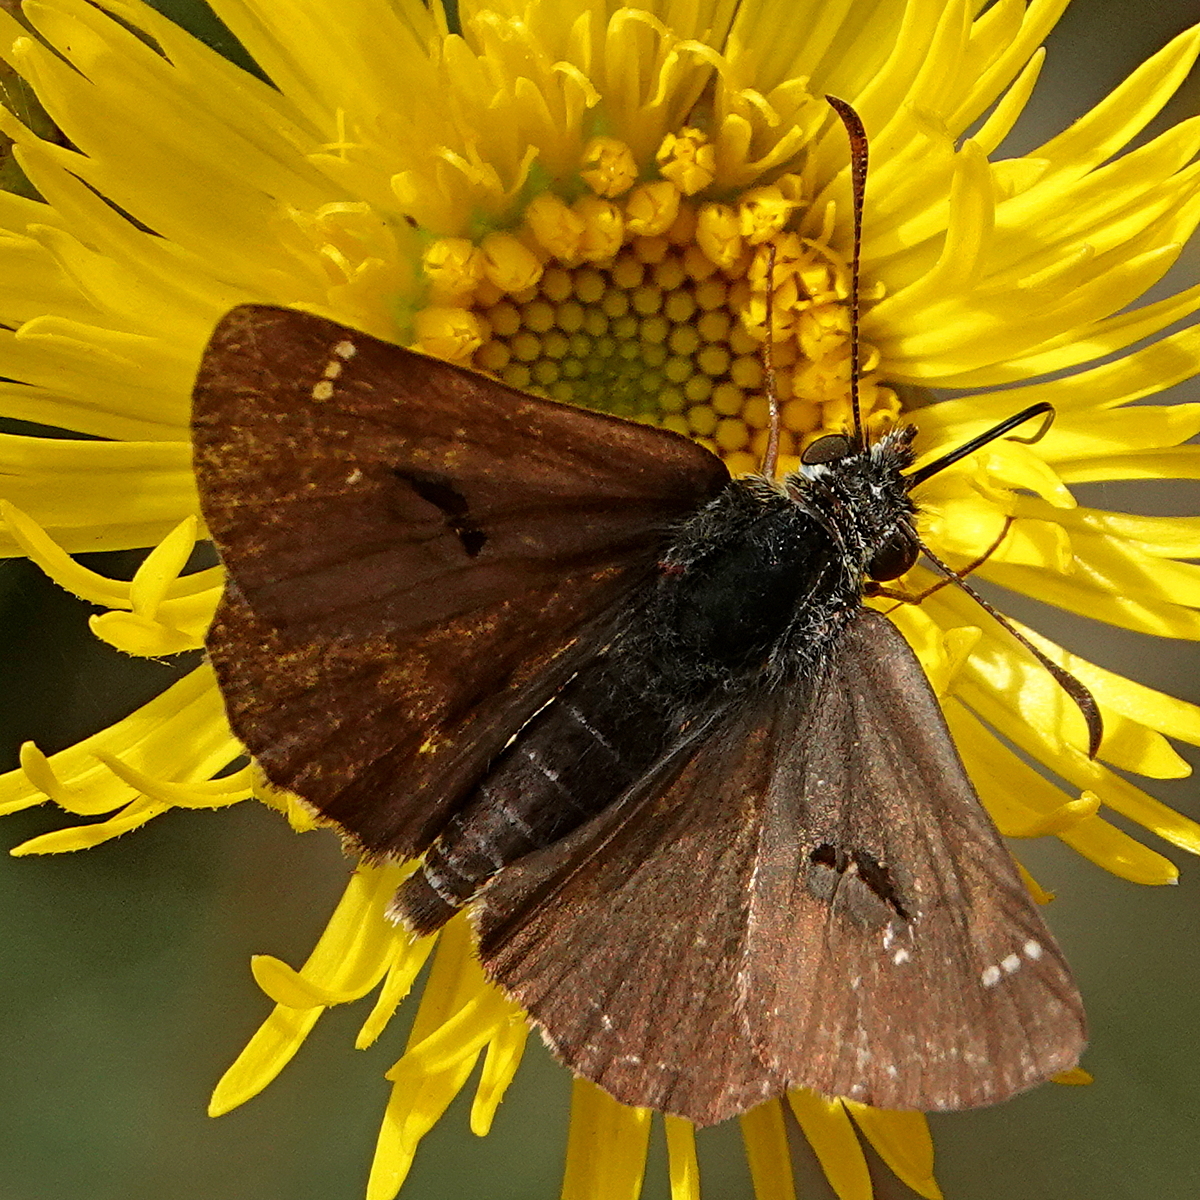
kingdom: Animalia
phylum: Arthropoda
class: Insecta
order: Lepidoptera
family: Hesperiidae
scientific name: Hesperiidae
